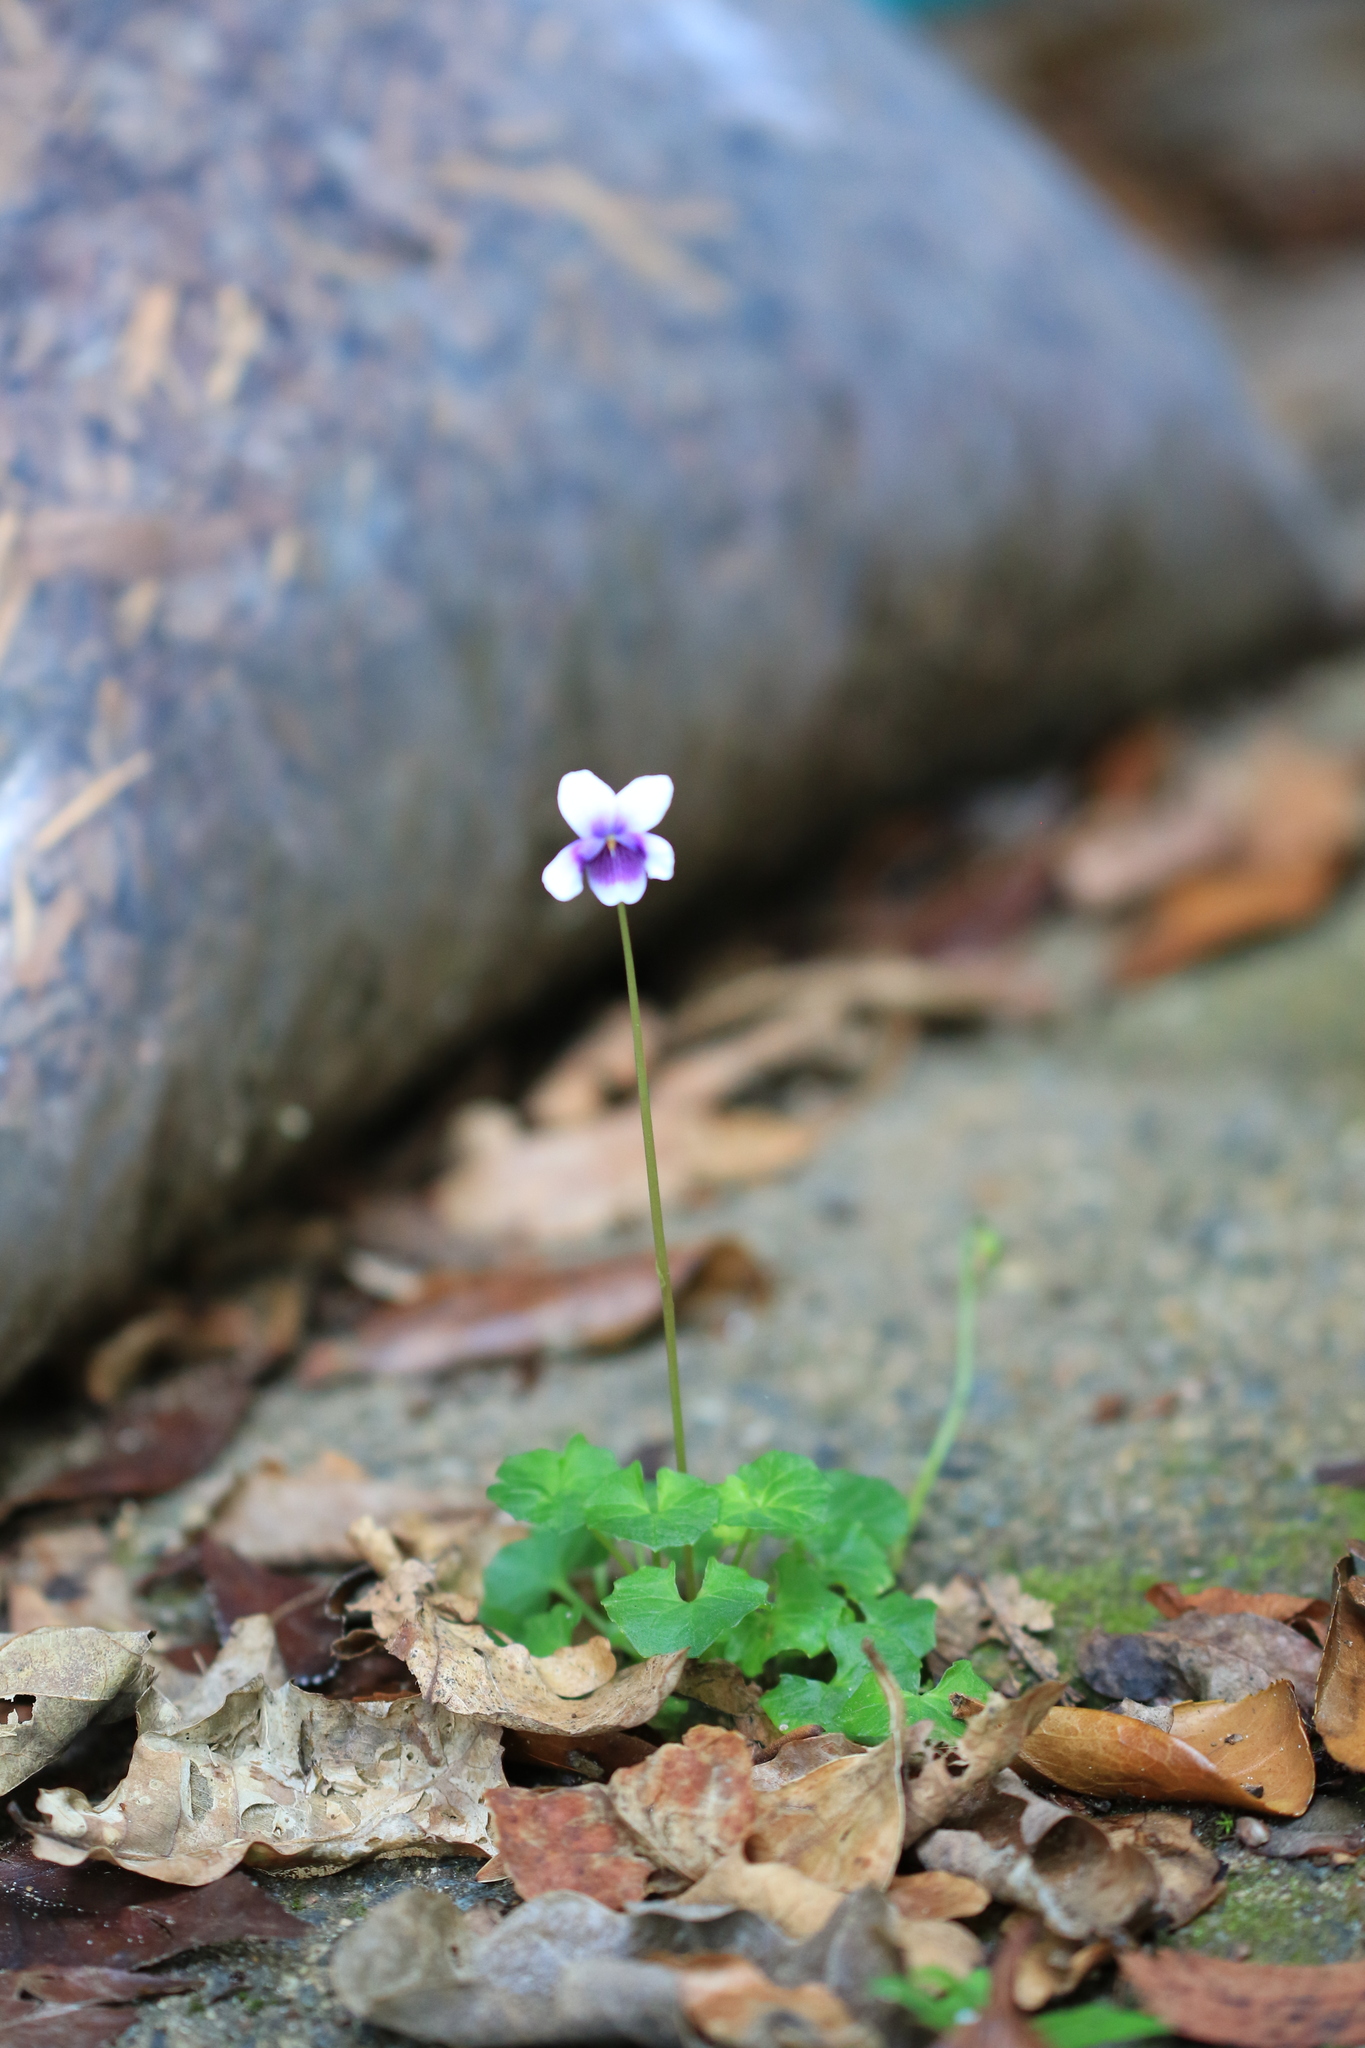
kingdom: Plantae
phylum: Tracheophyta
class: Magnoliopsida
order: Malpighiales
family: Violaceae
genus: Viola
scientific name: Viola banksii
